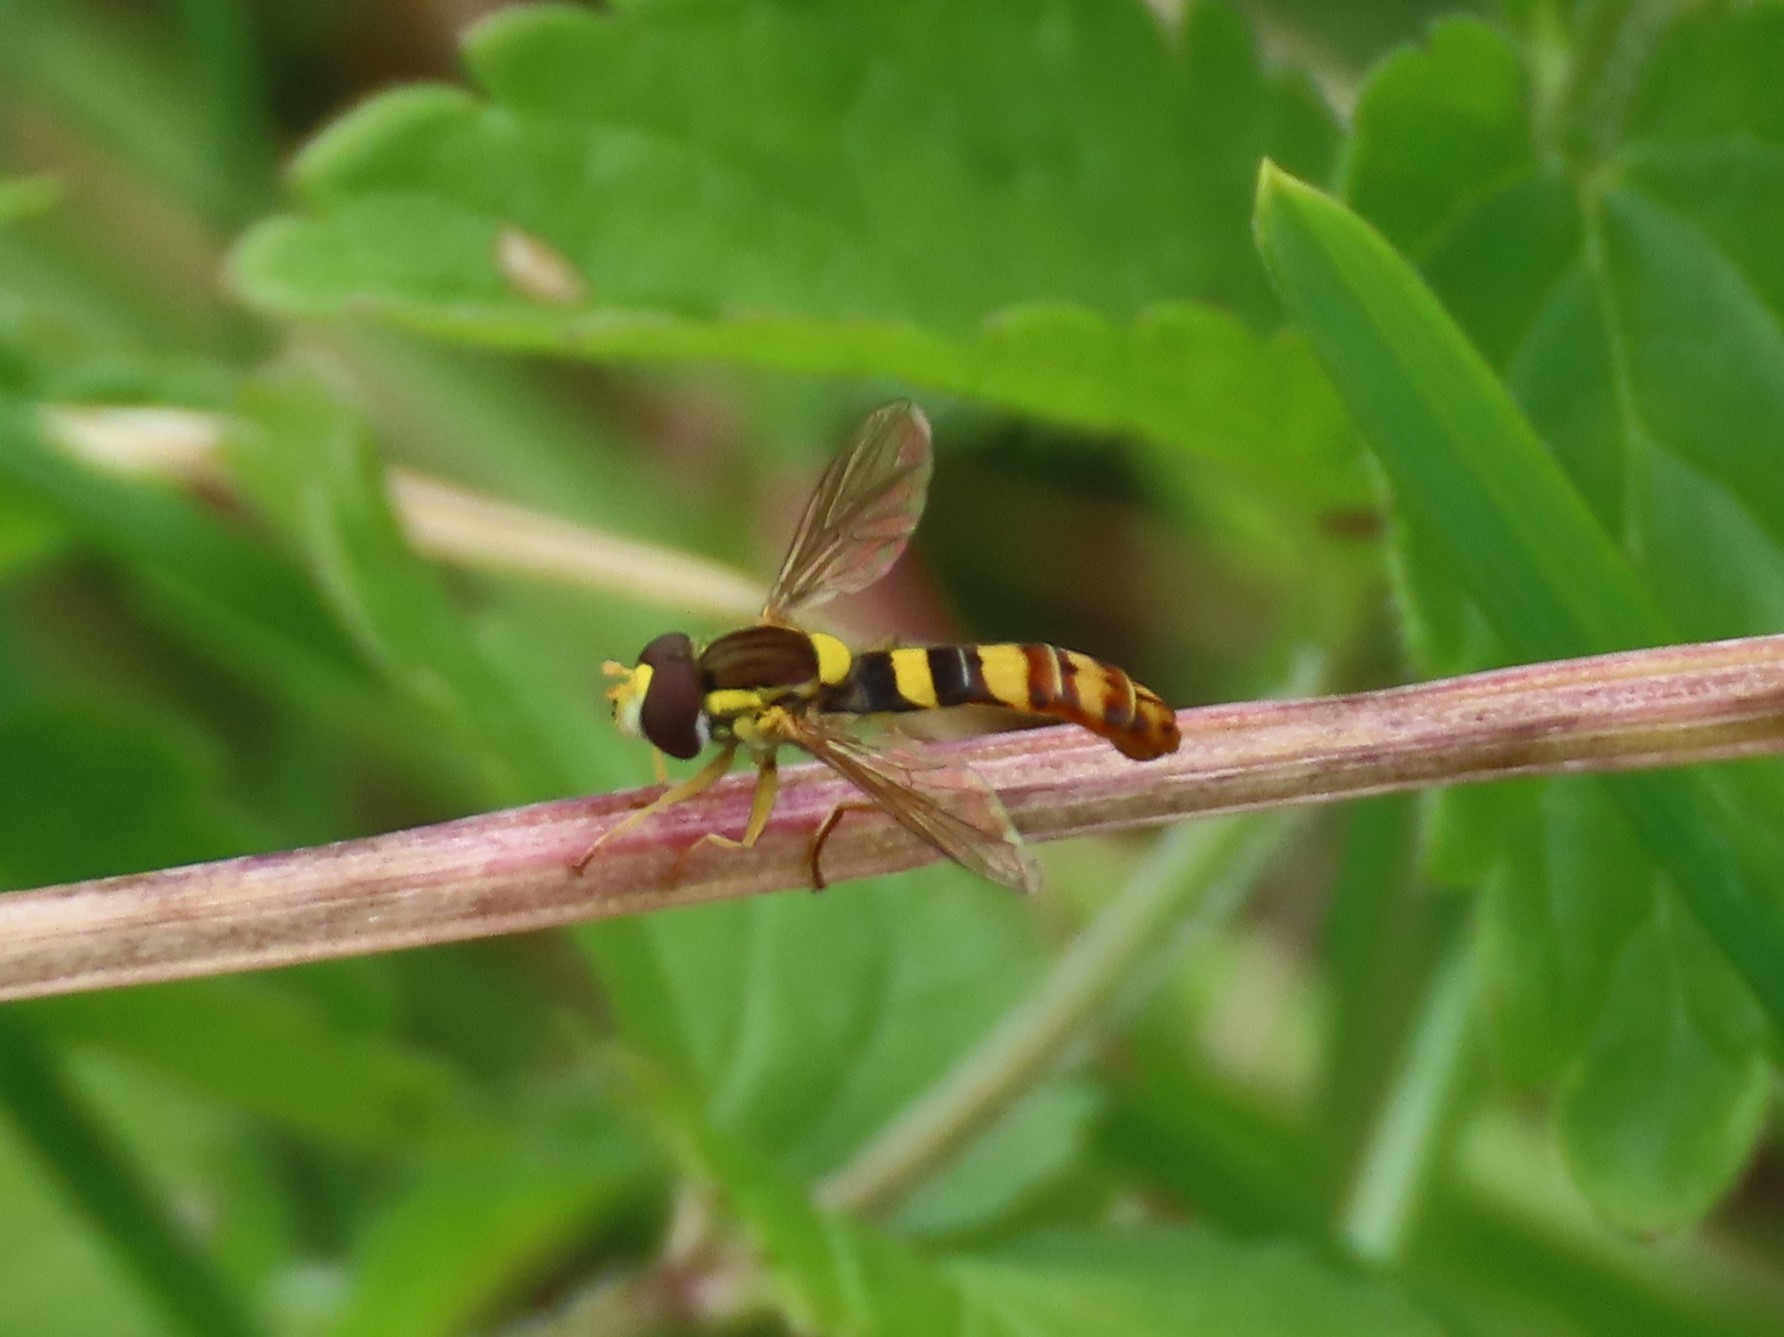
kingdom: Animalia
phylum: Arthropoda
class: Insecta
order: Diptera
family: Syrphidae
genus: Sphaerophoria
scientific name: Sphaerophoria scripta
